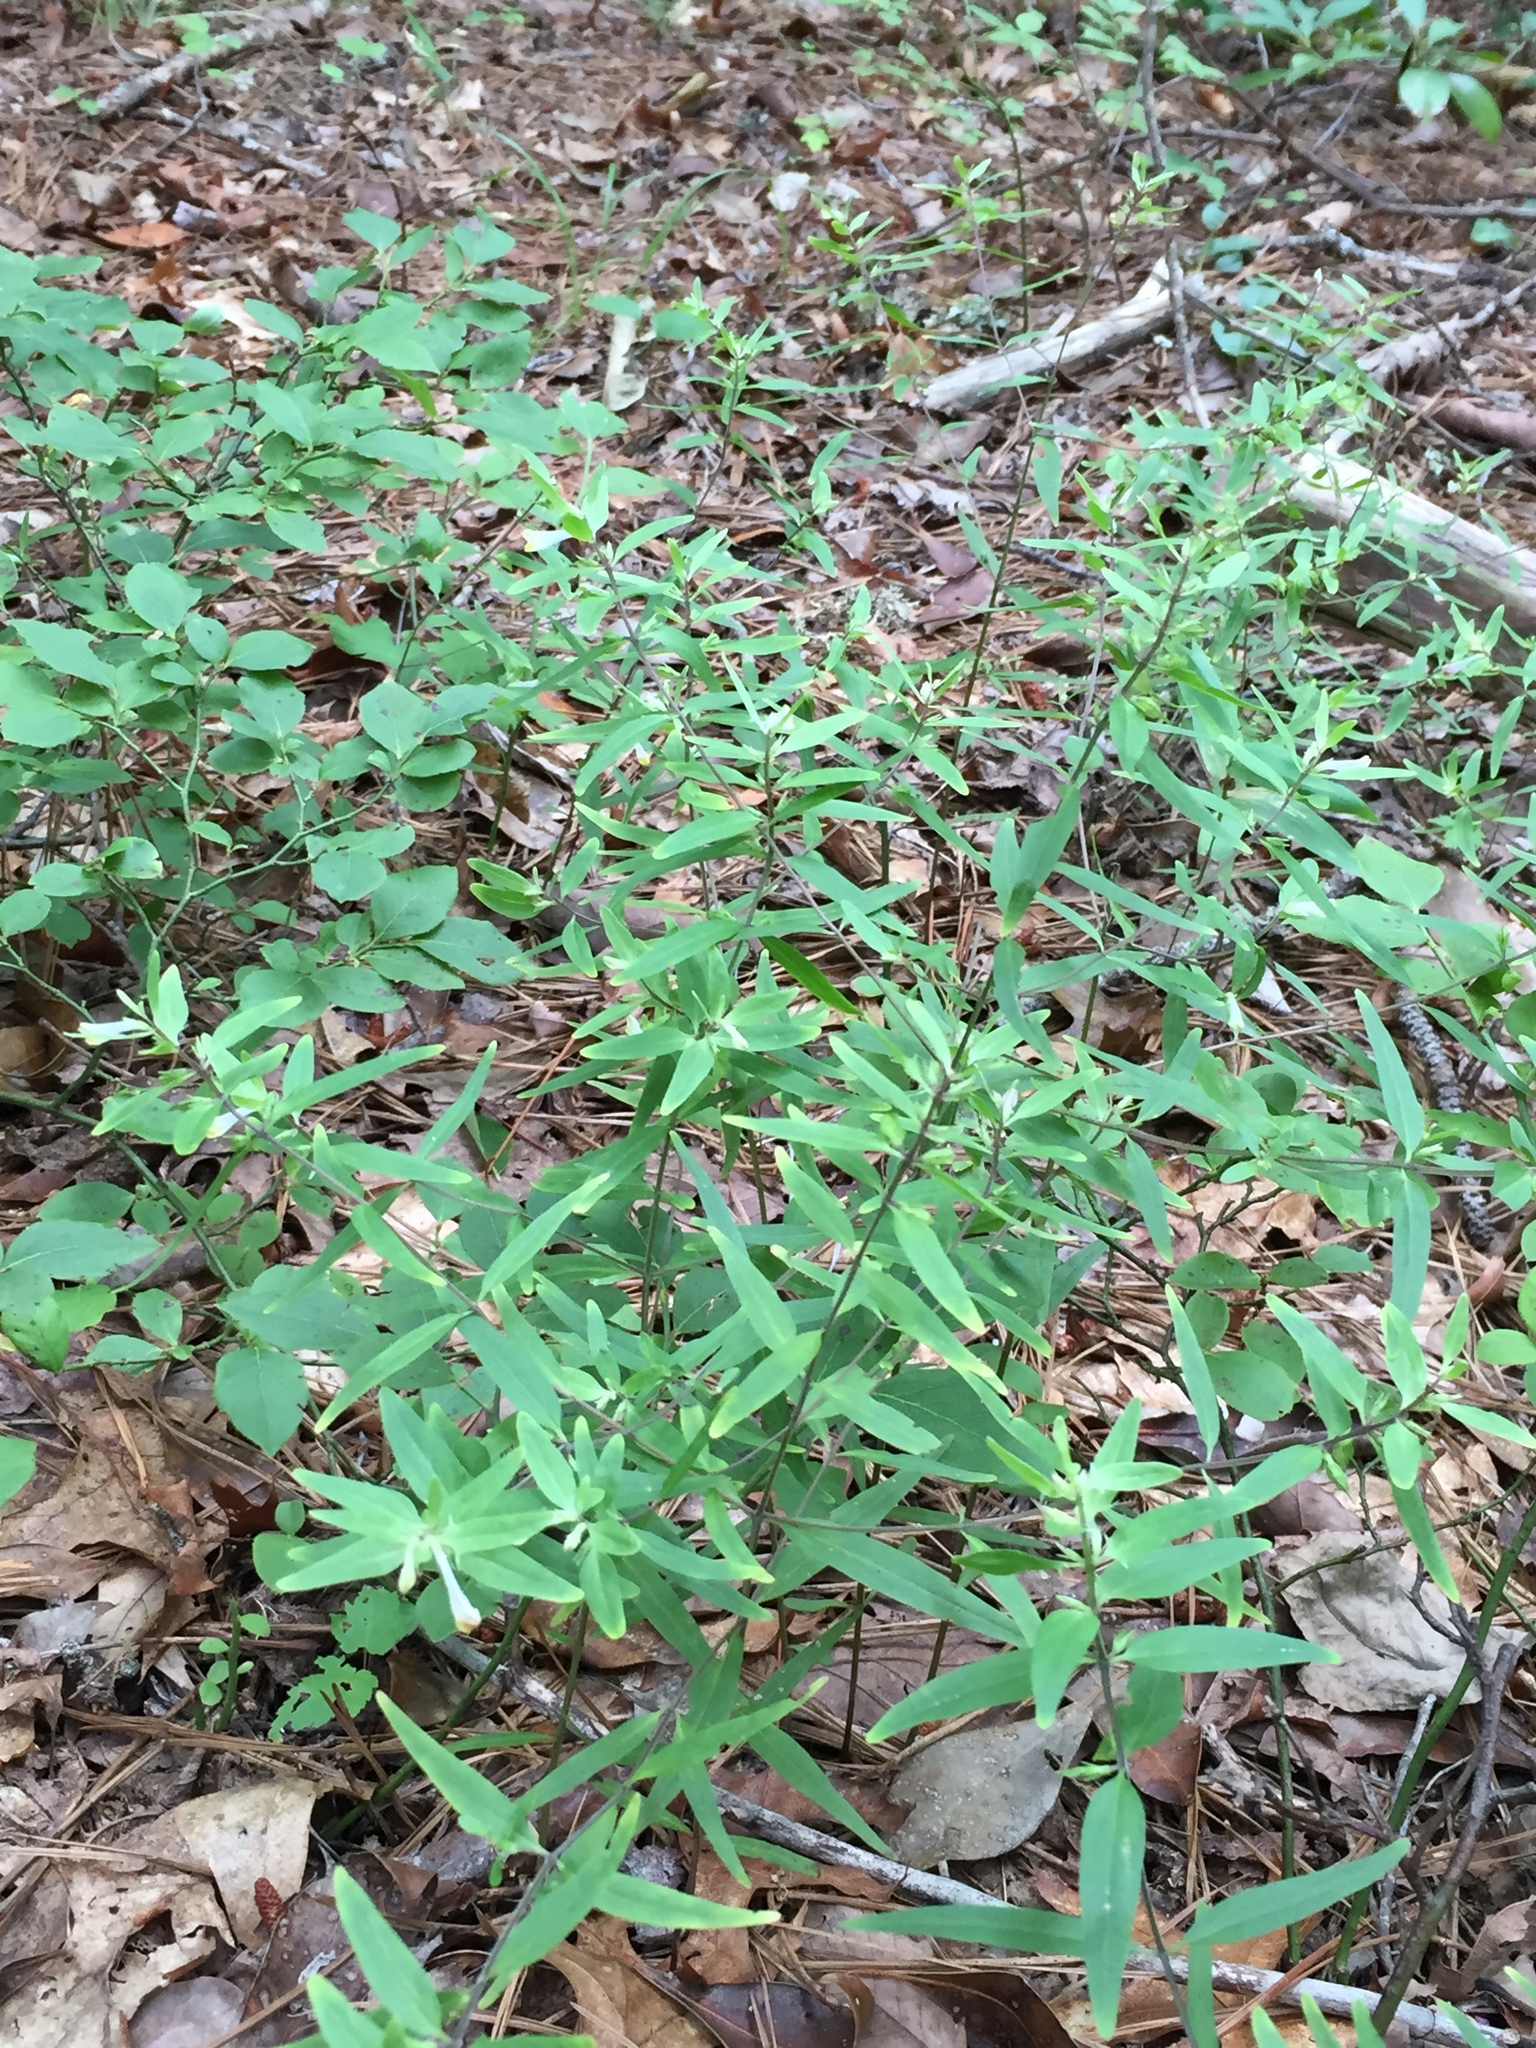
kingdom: Plantae
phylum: Tracheophyta
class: Magnoliopsida
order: Lamiales
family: Orobanchaceae
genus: Melampyrum
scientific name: Melampyrum lineare
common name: American cow-wheat
